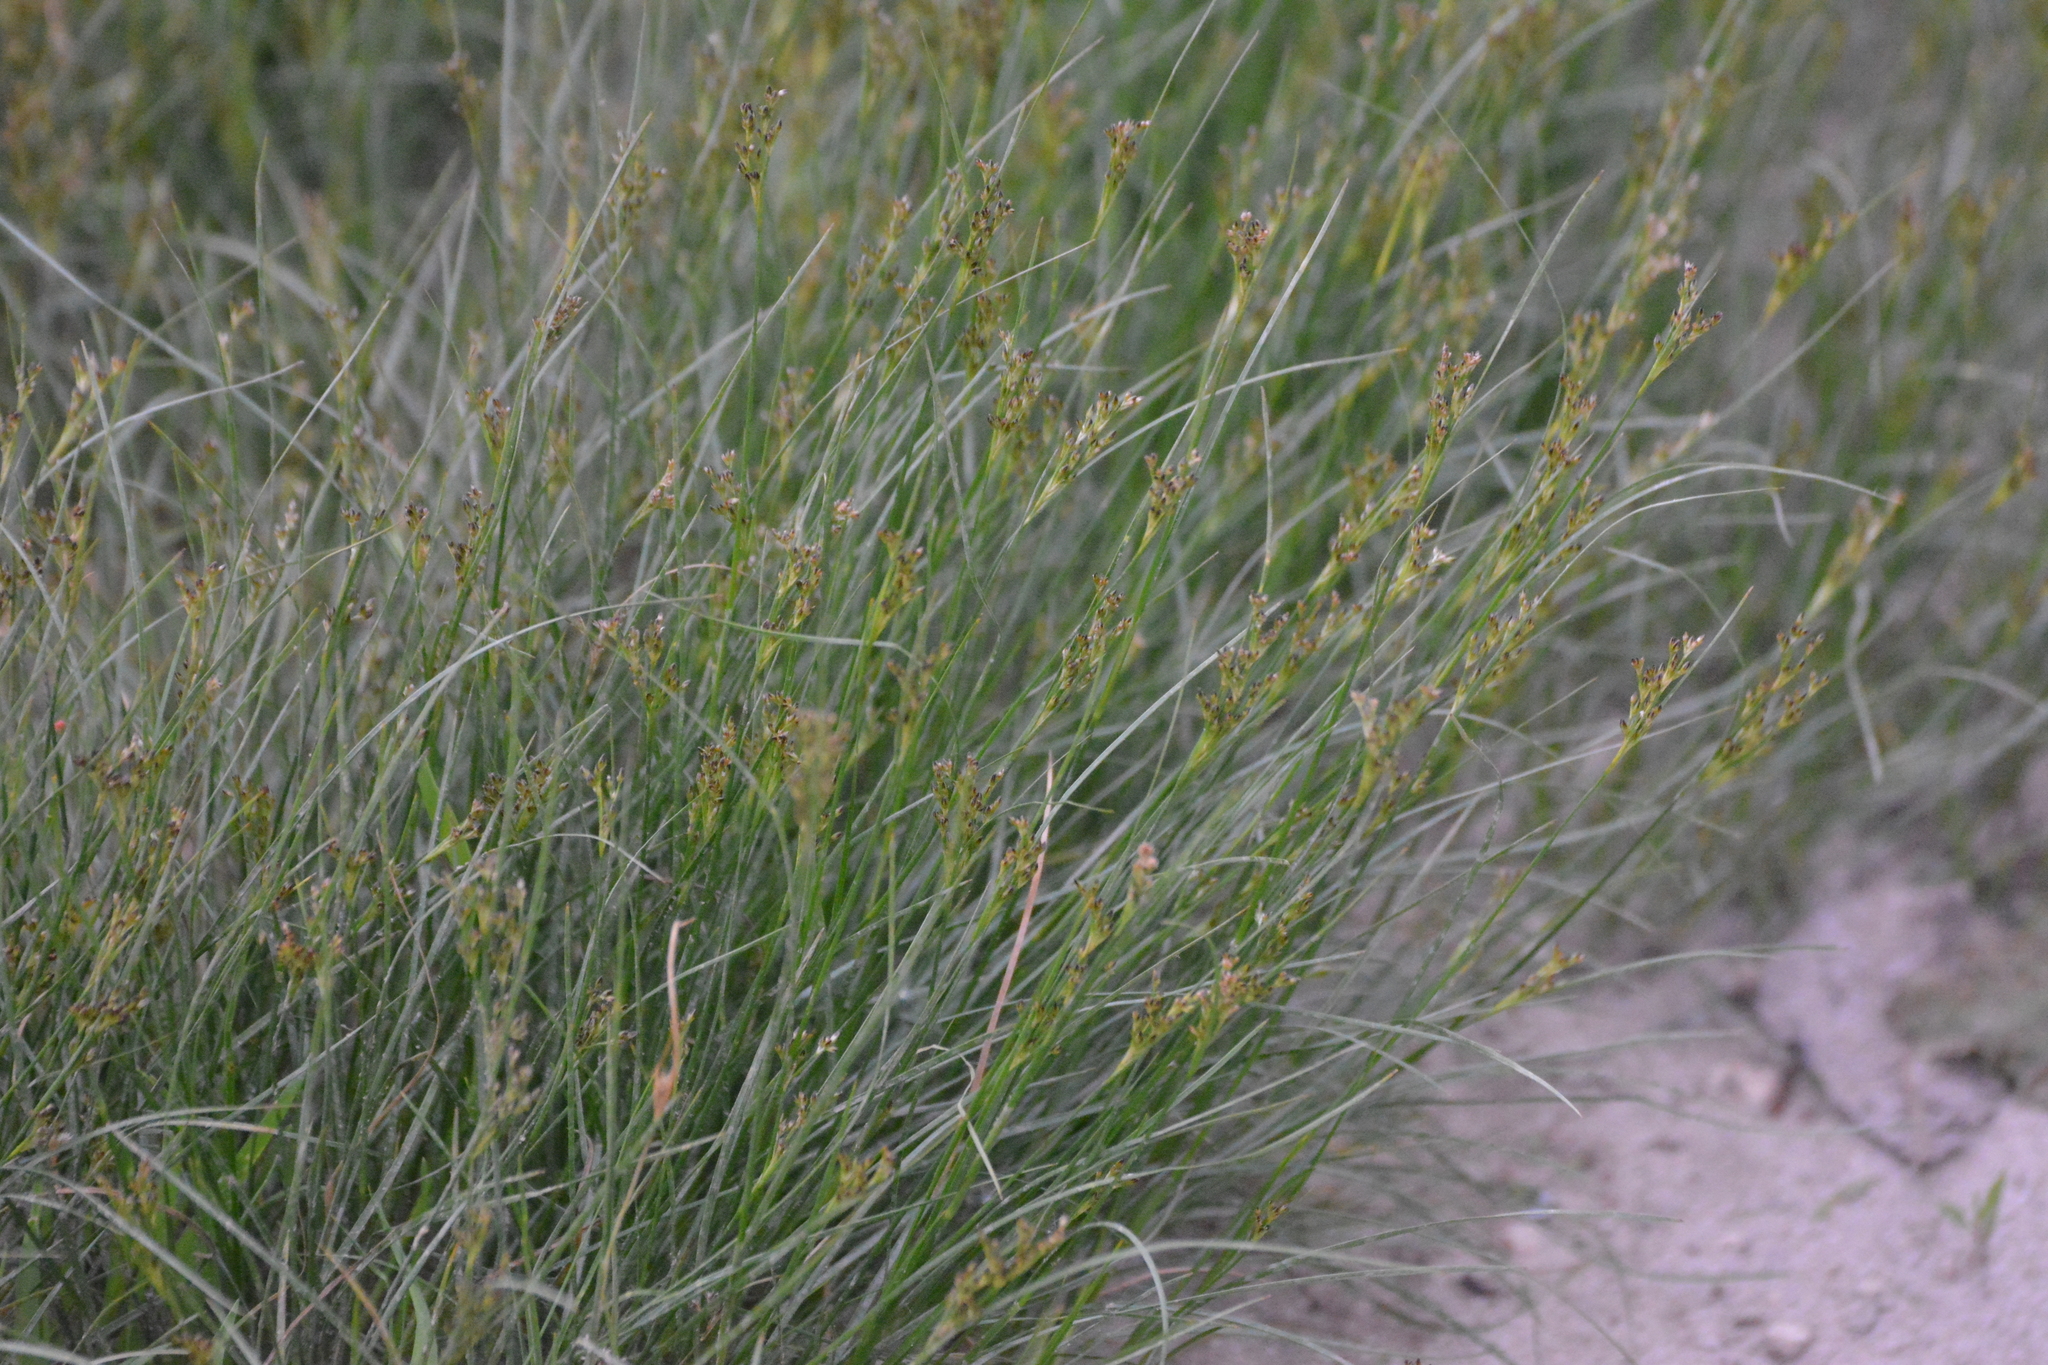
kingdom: Plantae
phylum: Tracheophyta
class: Liliopsida
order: Poales
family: Juncaceae
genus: Juncus
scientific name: Juncus compressus
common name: Round-fruited rush
